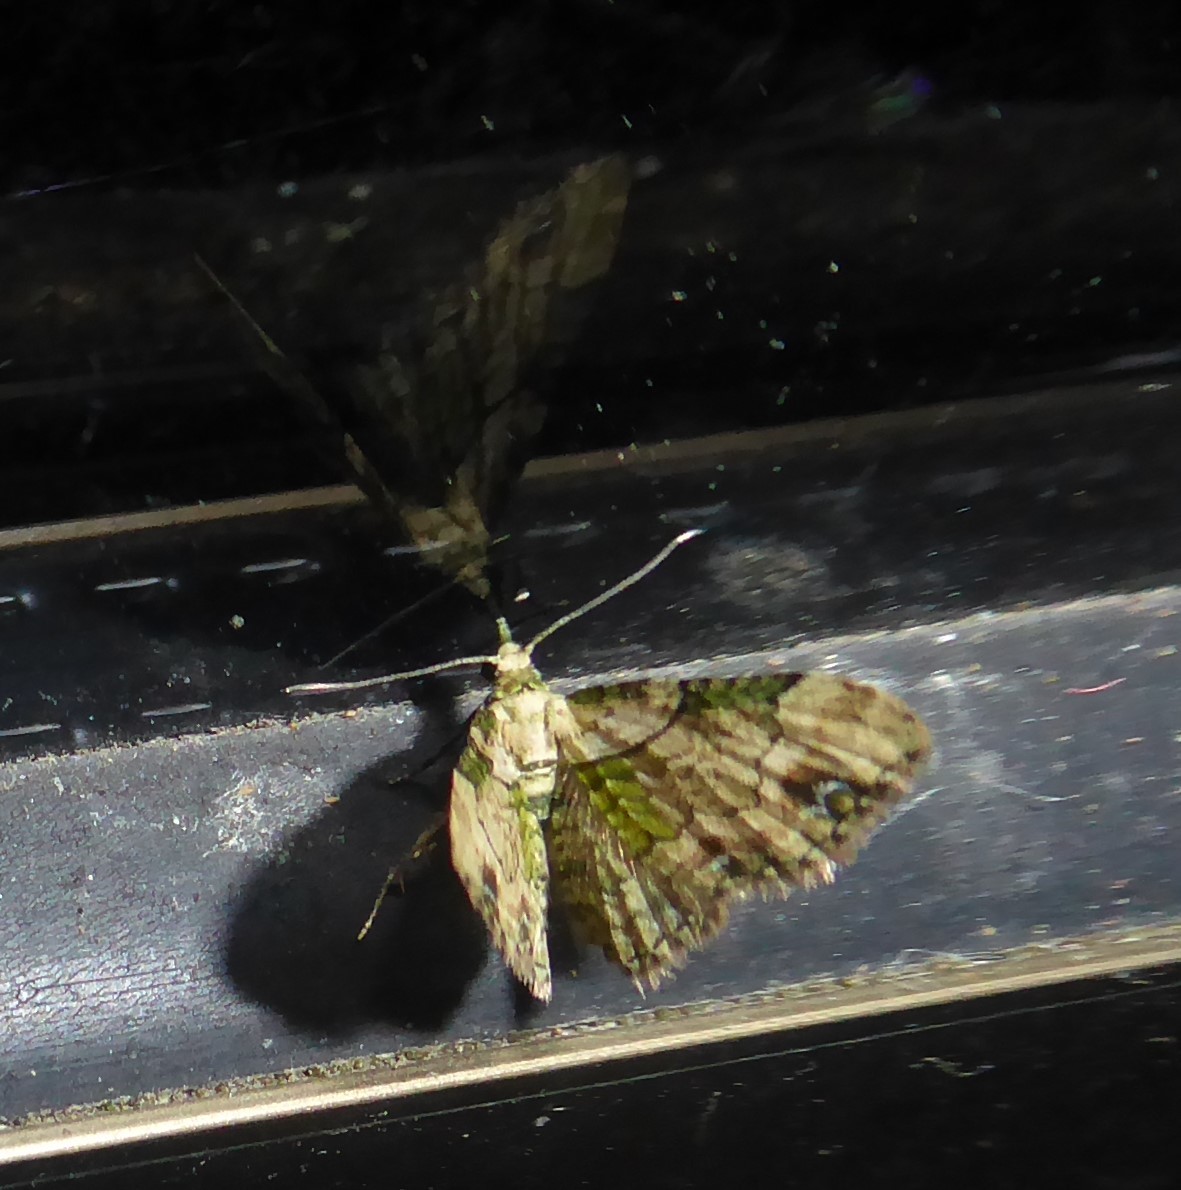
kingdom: Animalia
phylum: Arthropoda
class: Insecta
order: Lepidoptera
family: Geometridae
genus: Chloroclystis
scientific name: Chloroclystis
